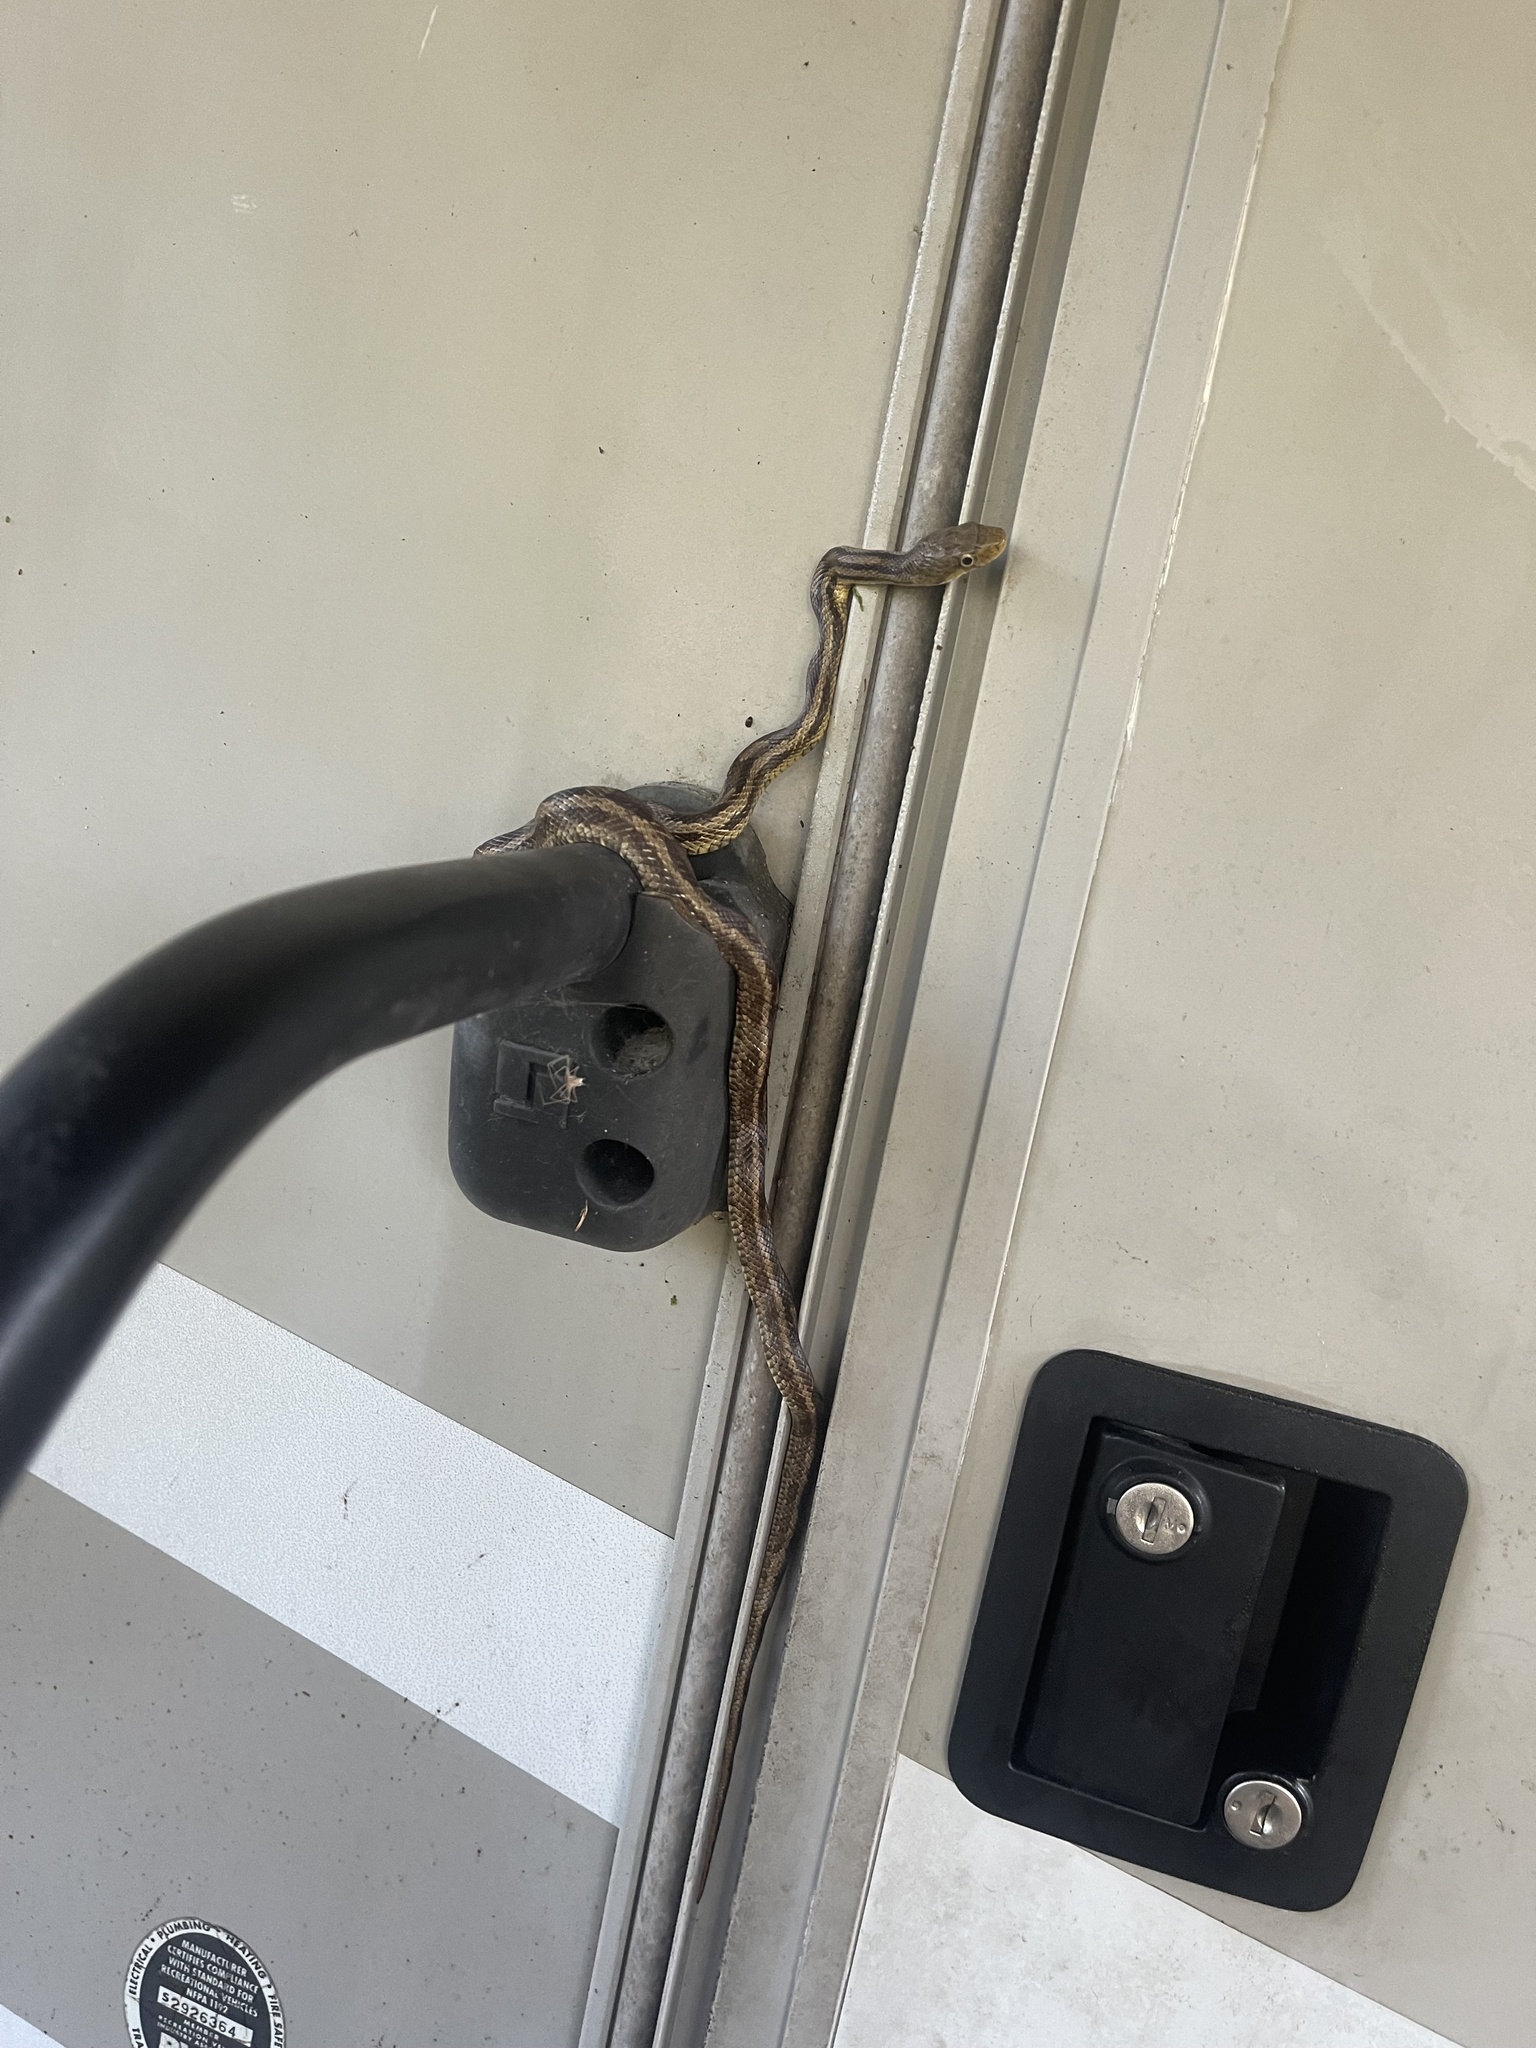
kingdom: Animalia
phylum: Chordata
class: Squamata
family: Colubridae
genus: Pantherophis
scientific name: Pantherophis alleghaniensis
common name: Eastern rat snake
